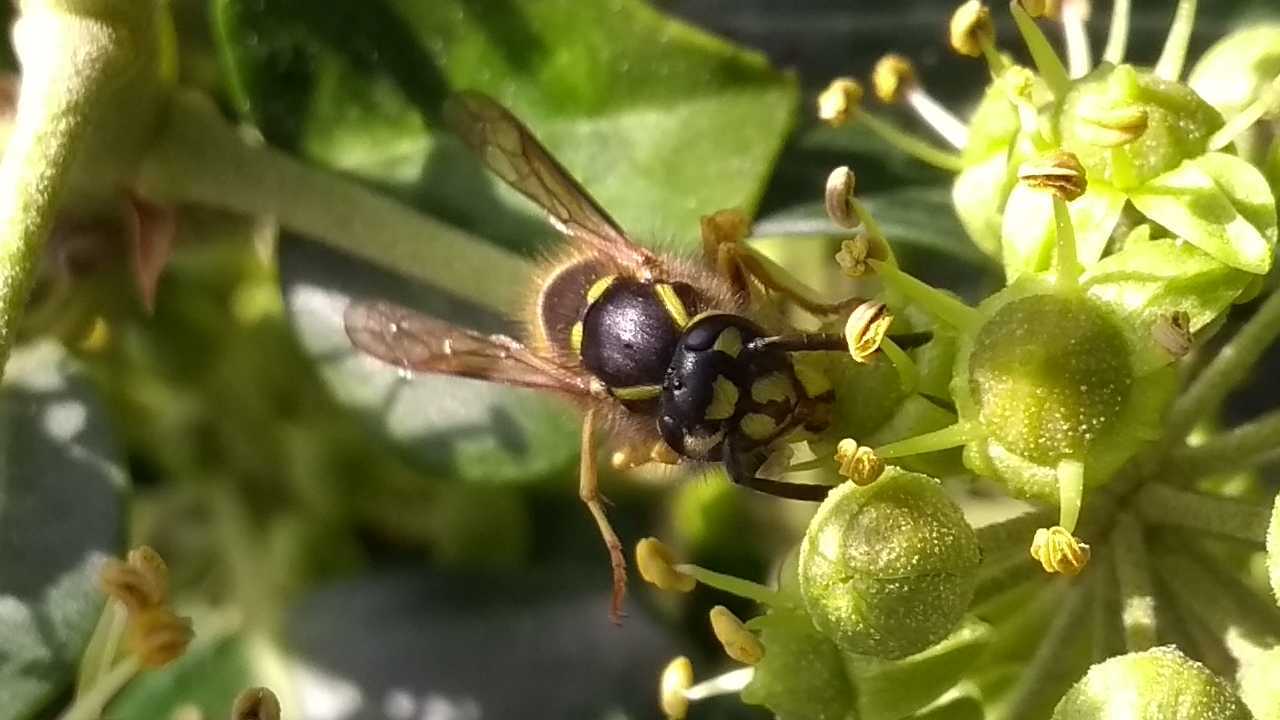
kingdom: Animalia
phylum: Arthropoda
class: Insecta
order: Hymenoptera
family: Vespidae
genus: Vespula
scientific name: Vespula vulgaris
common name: Common wasp
